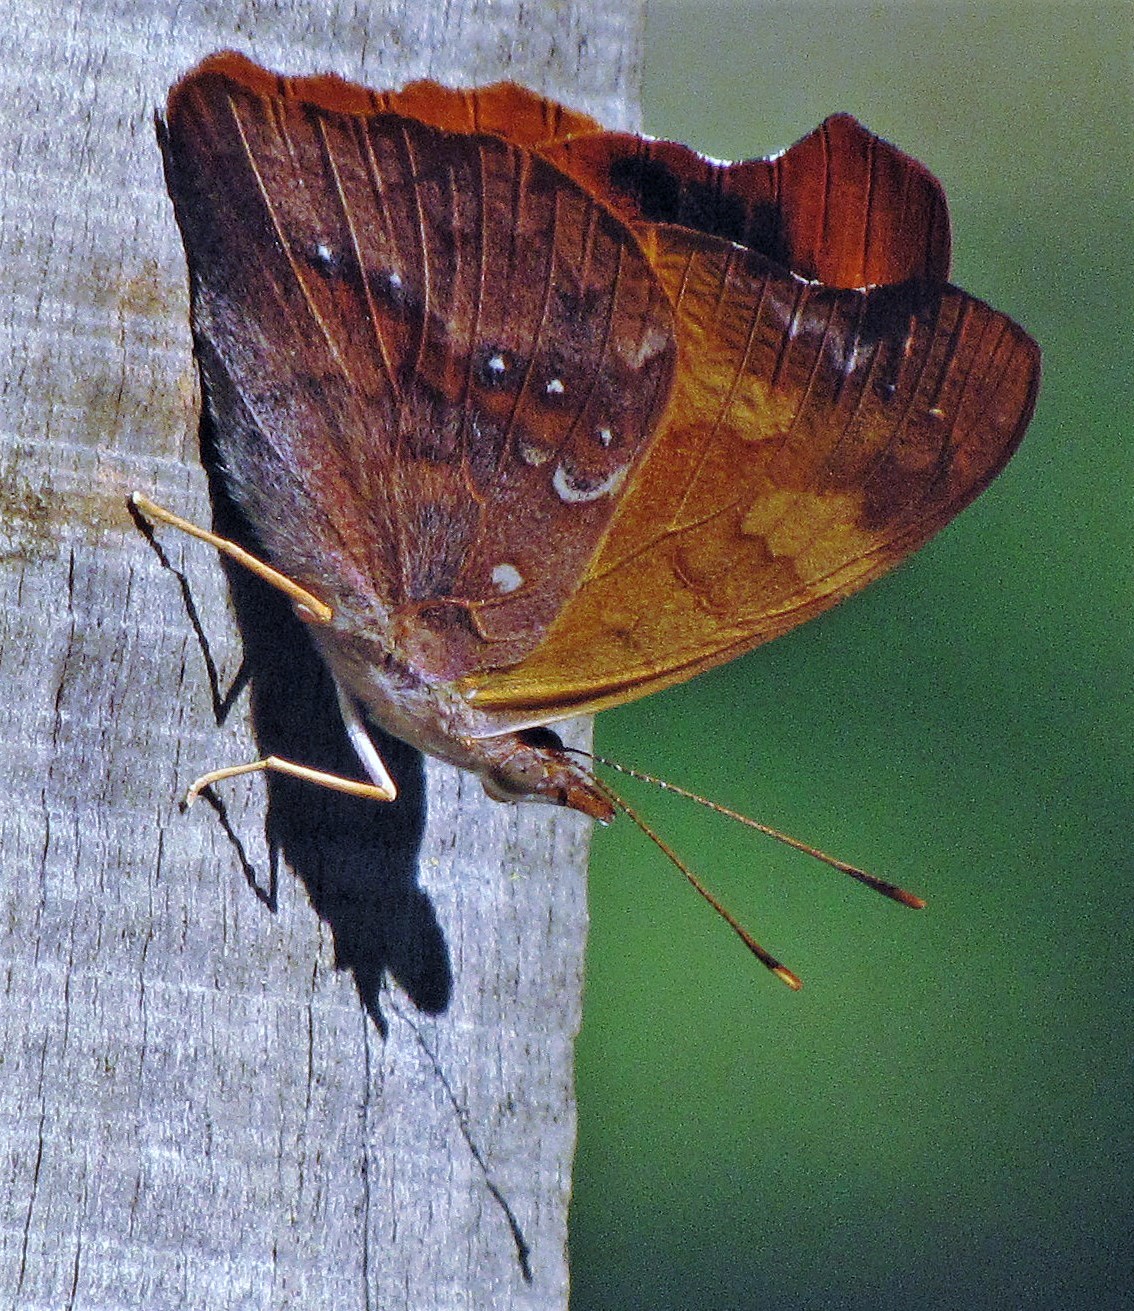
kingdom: Animalia
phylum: Arthropoda
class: Insecta
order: Lepidoptera
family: Nymphalidae
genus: Temenis
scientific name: Temenis laothoe
